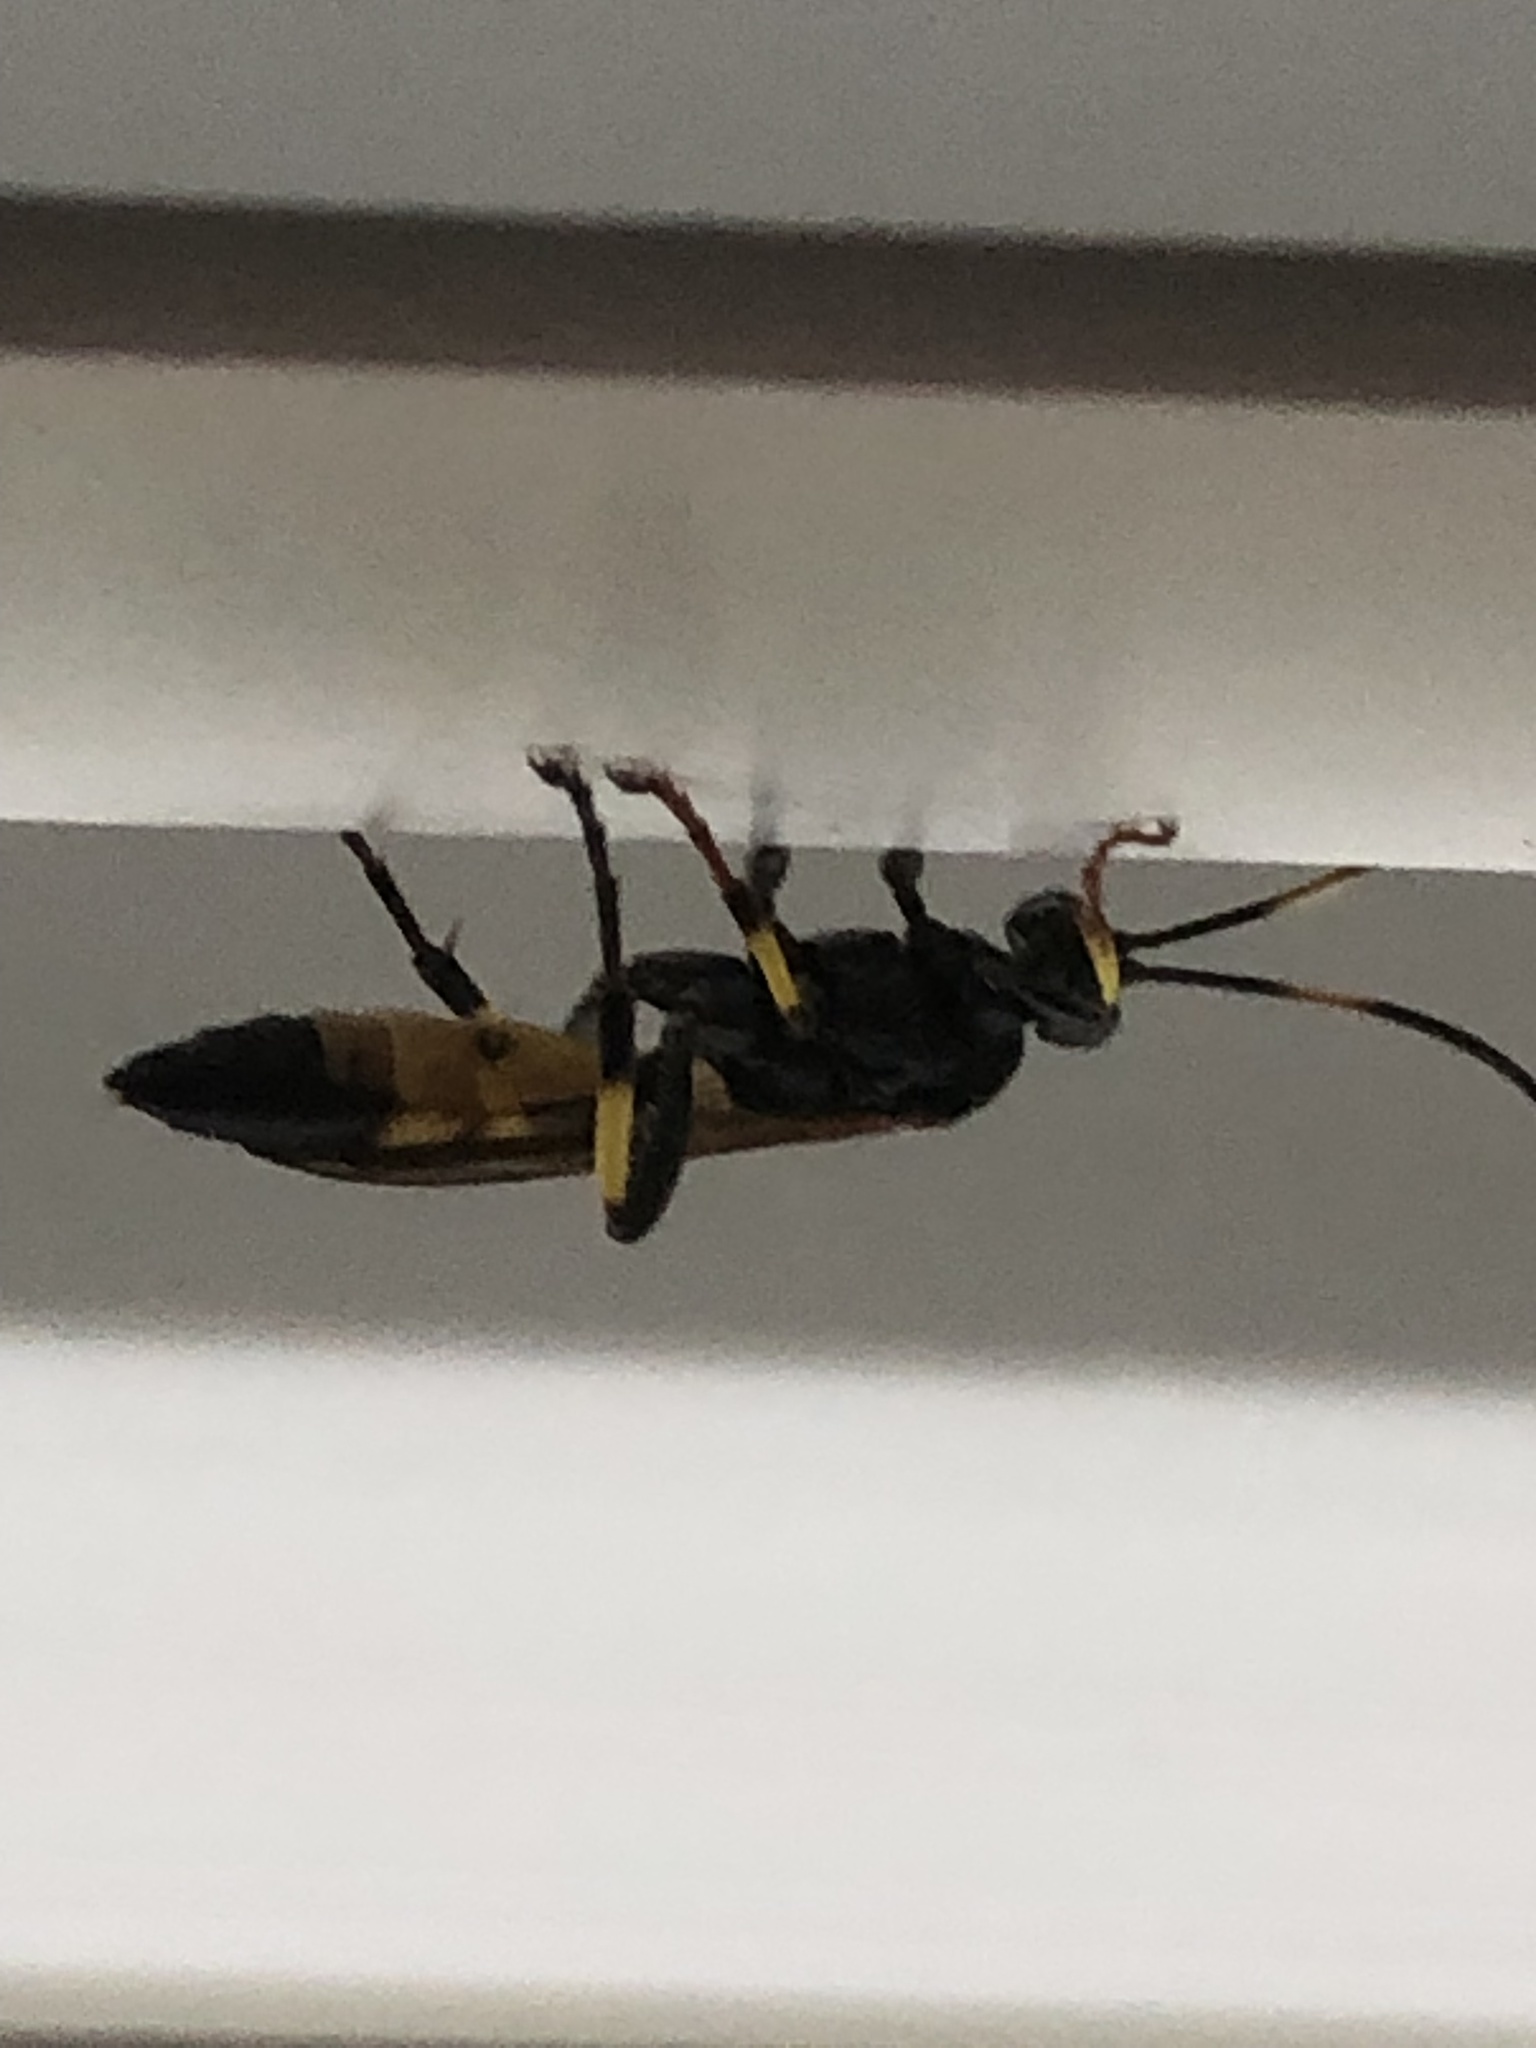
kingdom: Animalia
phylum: Arthropoda
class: Insecta
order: Hymenoptera
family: Ichneumonidae
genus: Ichneumon
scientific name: Ichneumon stramentor
